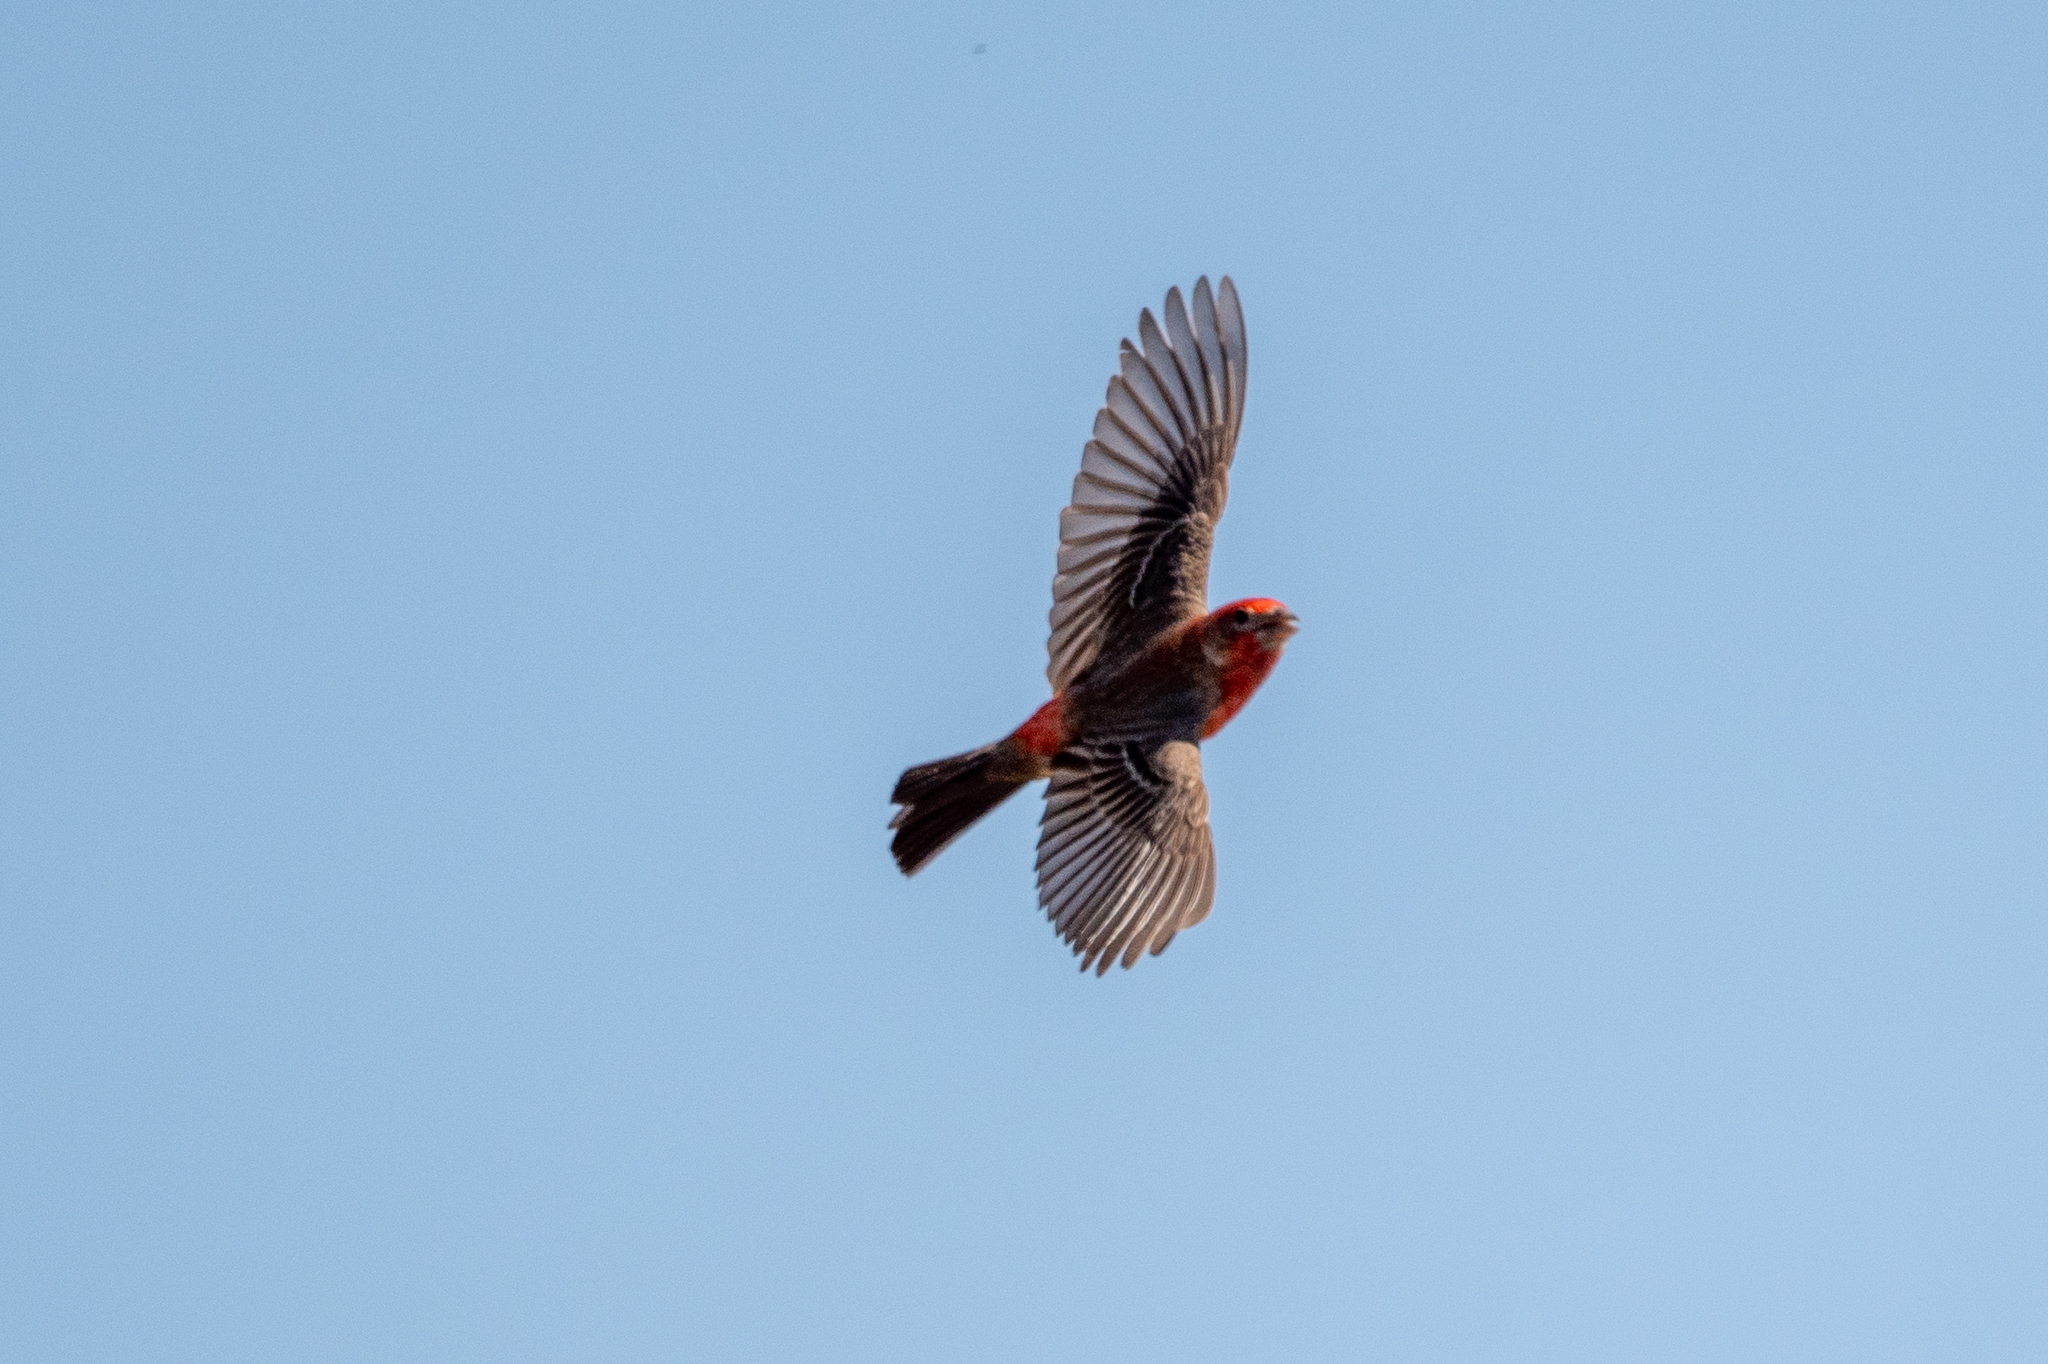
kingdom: Animalia
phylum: Chordata
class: Aves
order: Passeriformes
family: Fringillidae
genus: Haemorhous
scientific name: Haemorhous mexicanus
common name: House finch
